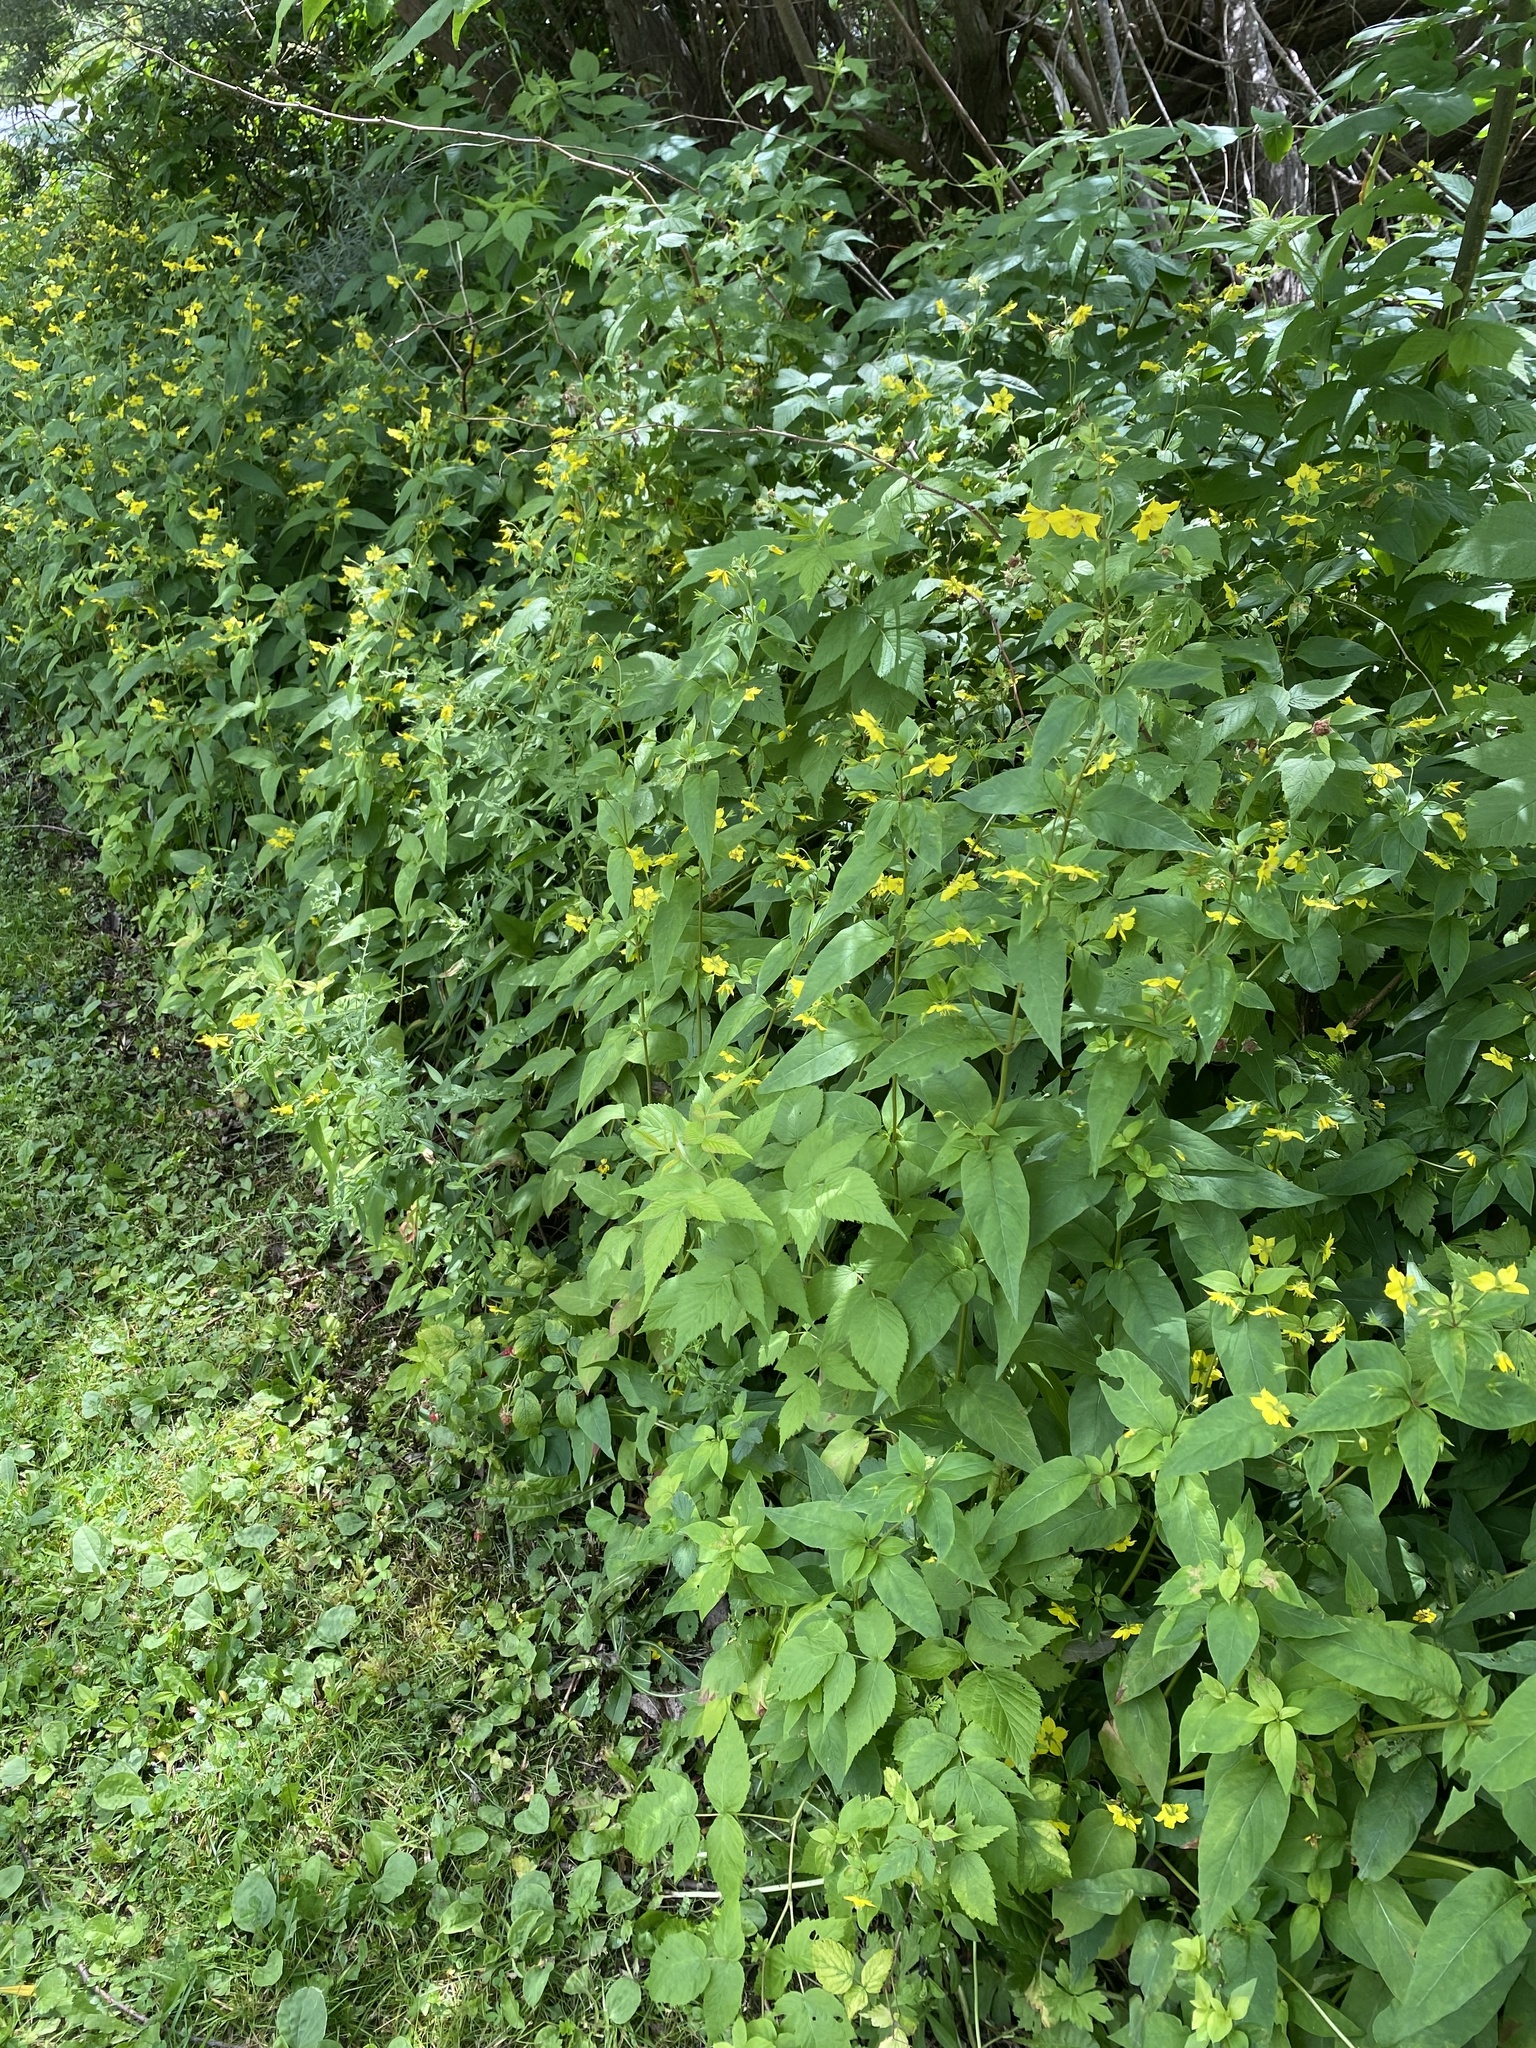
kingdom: Plantae
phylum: Tracheophyta
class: Magnoliopsida
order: Ericales
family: Primulaceae
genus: Lysimachia
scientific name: Lysimachia ciliata
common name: Fringed loosestrife
